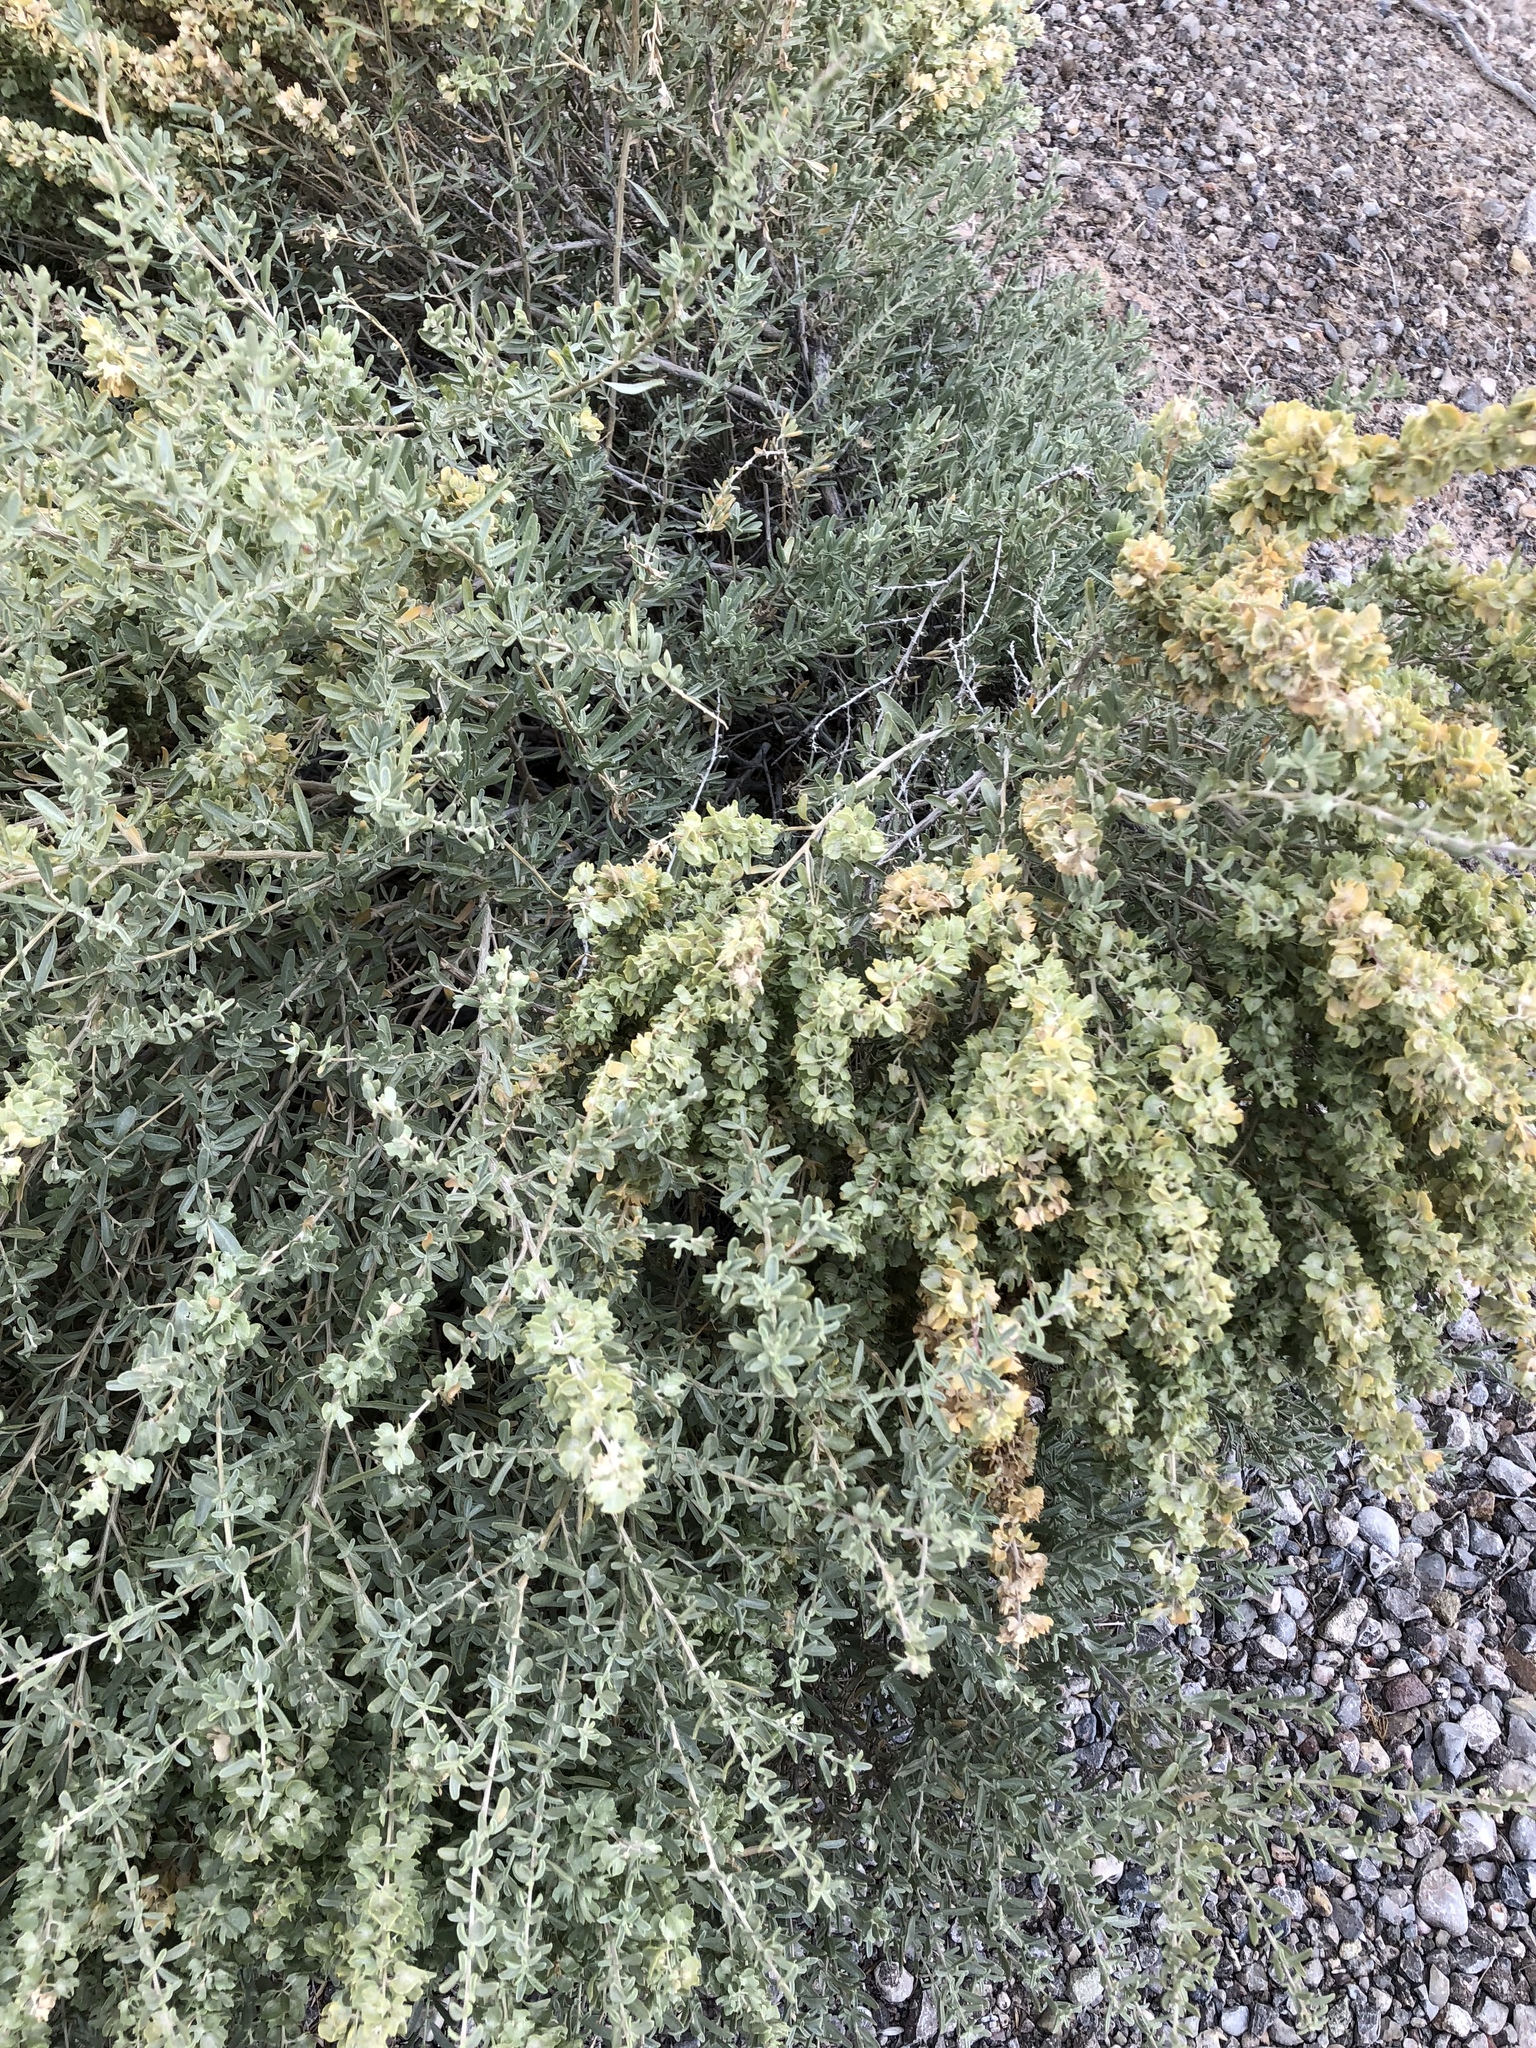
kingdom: Plantae
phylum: Tracheophyta
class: Magnoliopsida
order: Caryophyllales
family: Amaranthaceae
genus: Atriplex
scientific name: Atriplex canescens
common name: Four-wing saltbush
